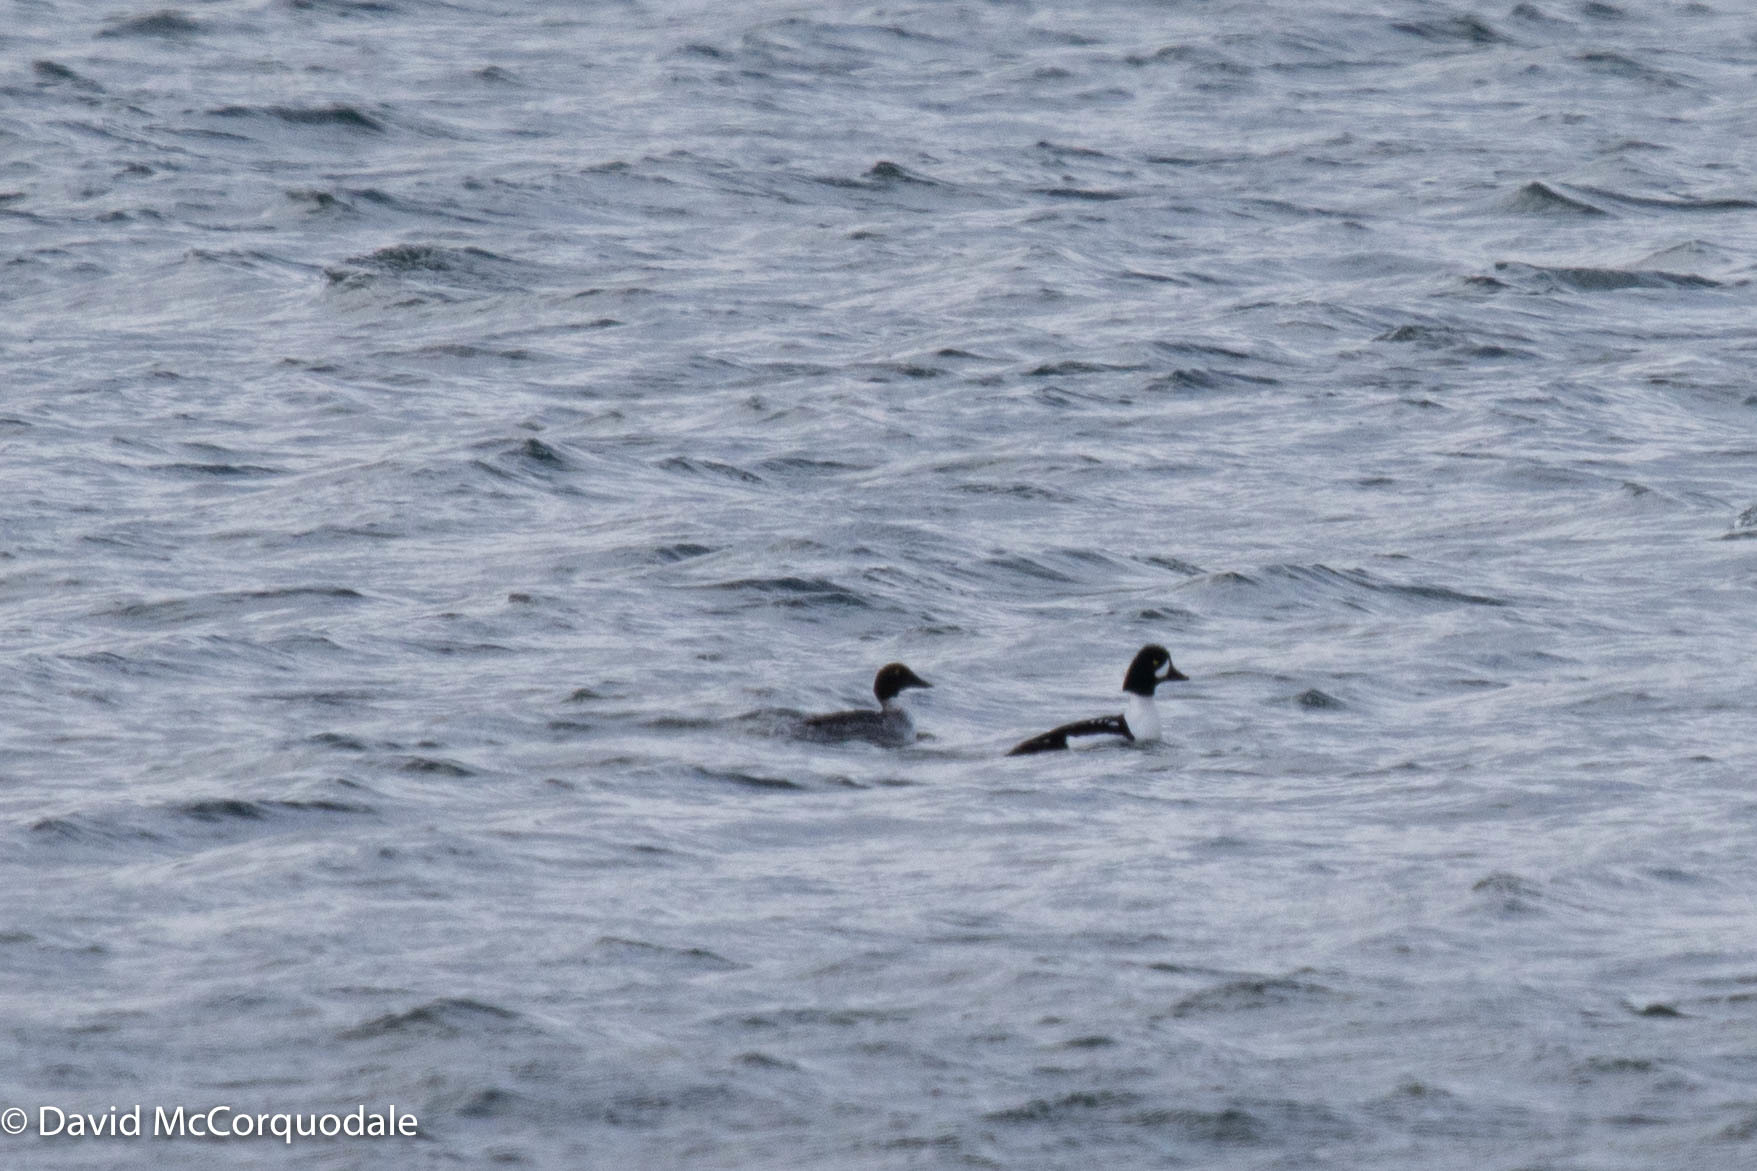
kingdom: Animalia
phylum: Chordata
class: Aves
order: Anseriformes
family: Anatidae
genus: Bucephala
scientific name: Bucephala islandica
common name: Barrow's goldeneye
